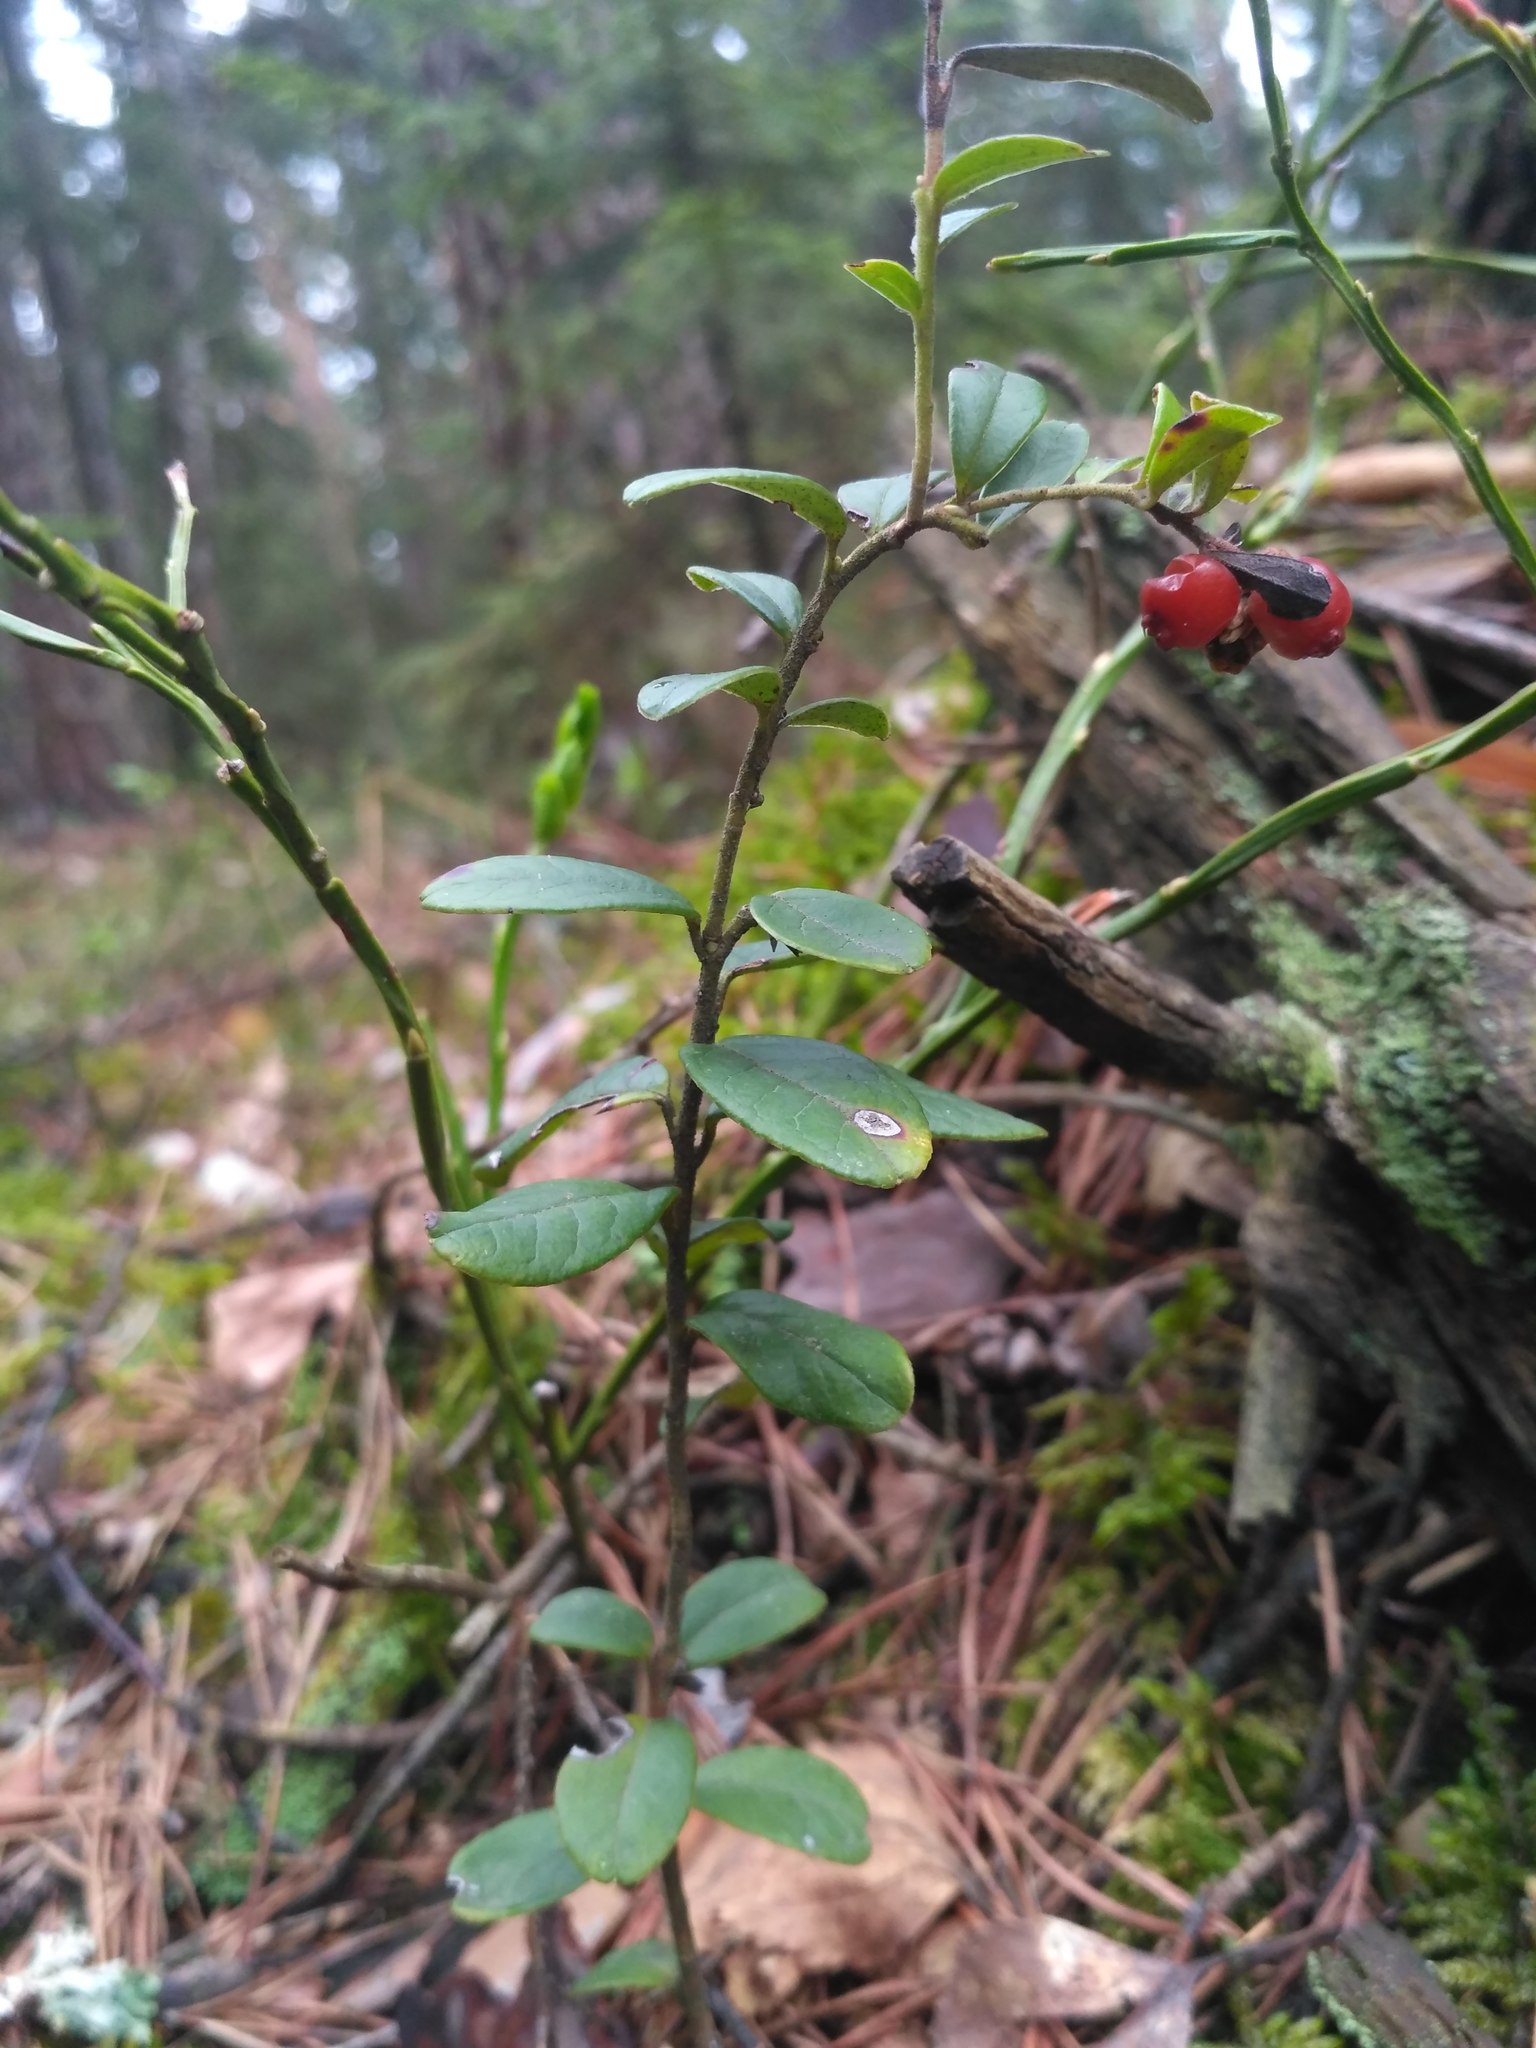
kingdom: Plantae
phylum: Tracheophyta
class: Magnoliopsida
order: Ericales
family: Ericaceae
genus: Vaccinium
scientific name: Vaccinium vitis-idaea
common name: Cowberry
